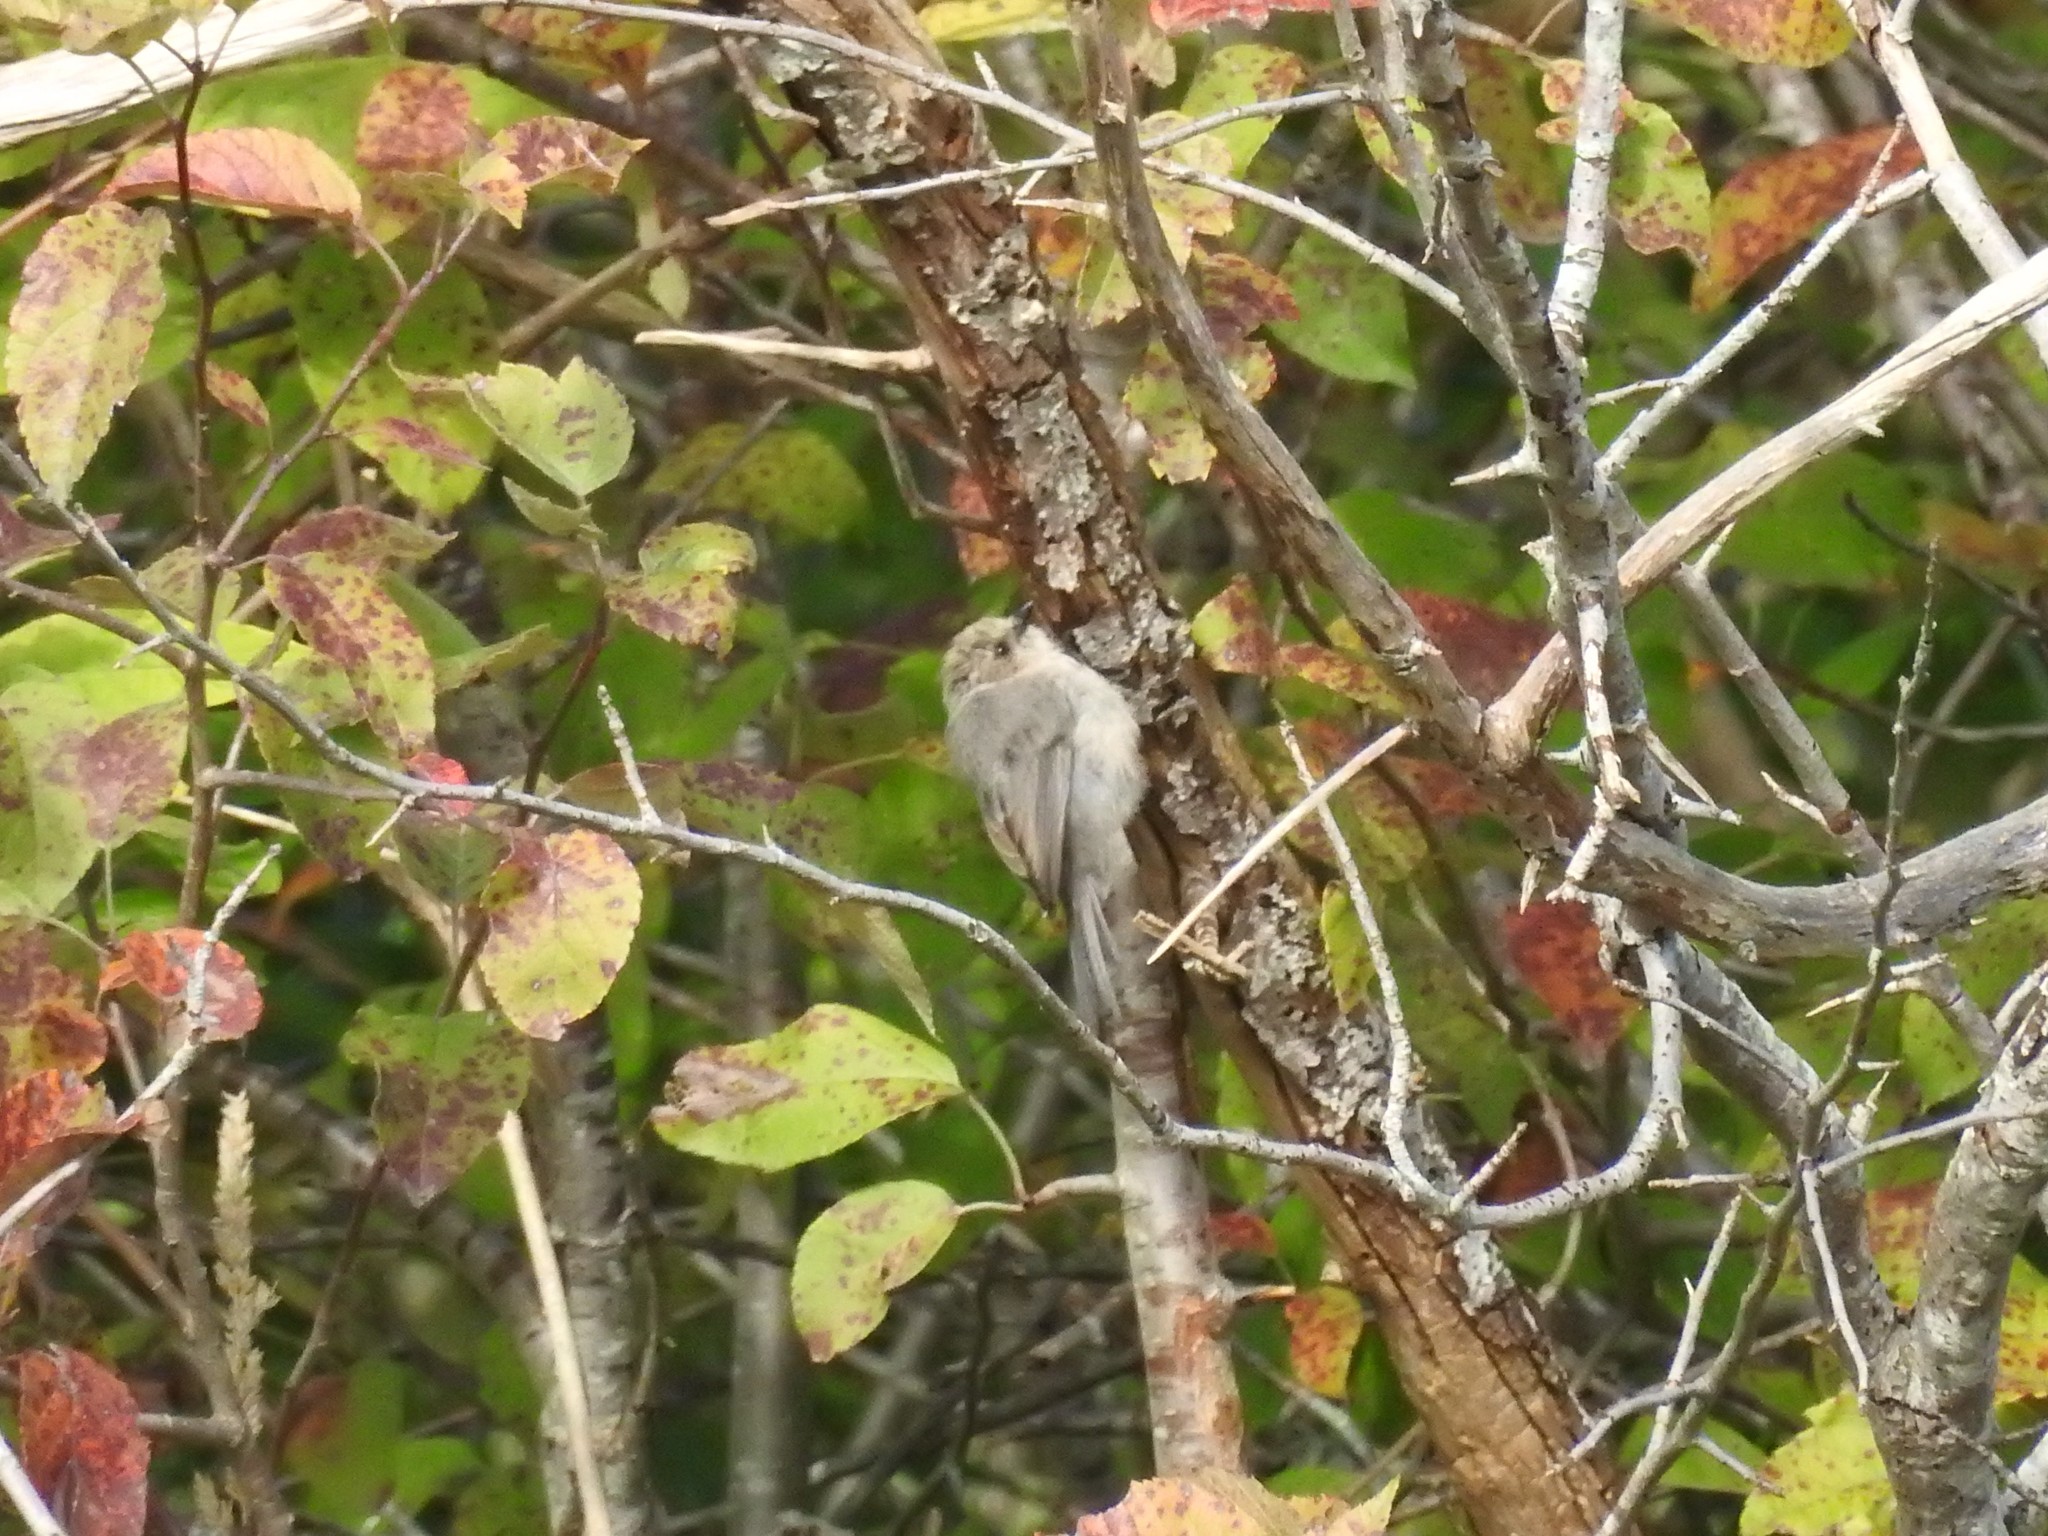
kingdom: Animalia
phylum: Chordata
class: Aves
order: Passeriformes
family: Aegithalidae
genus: Psaltriparus
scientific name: Psaltriparus minimus
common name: American bushtit
